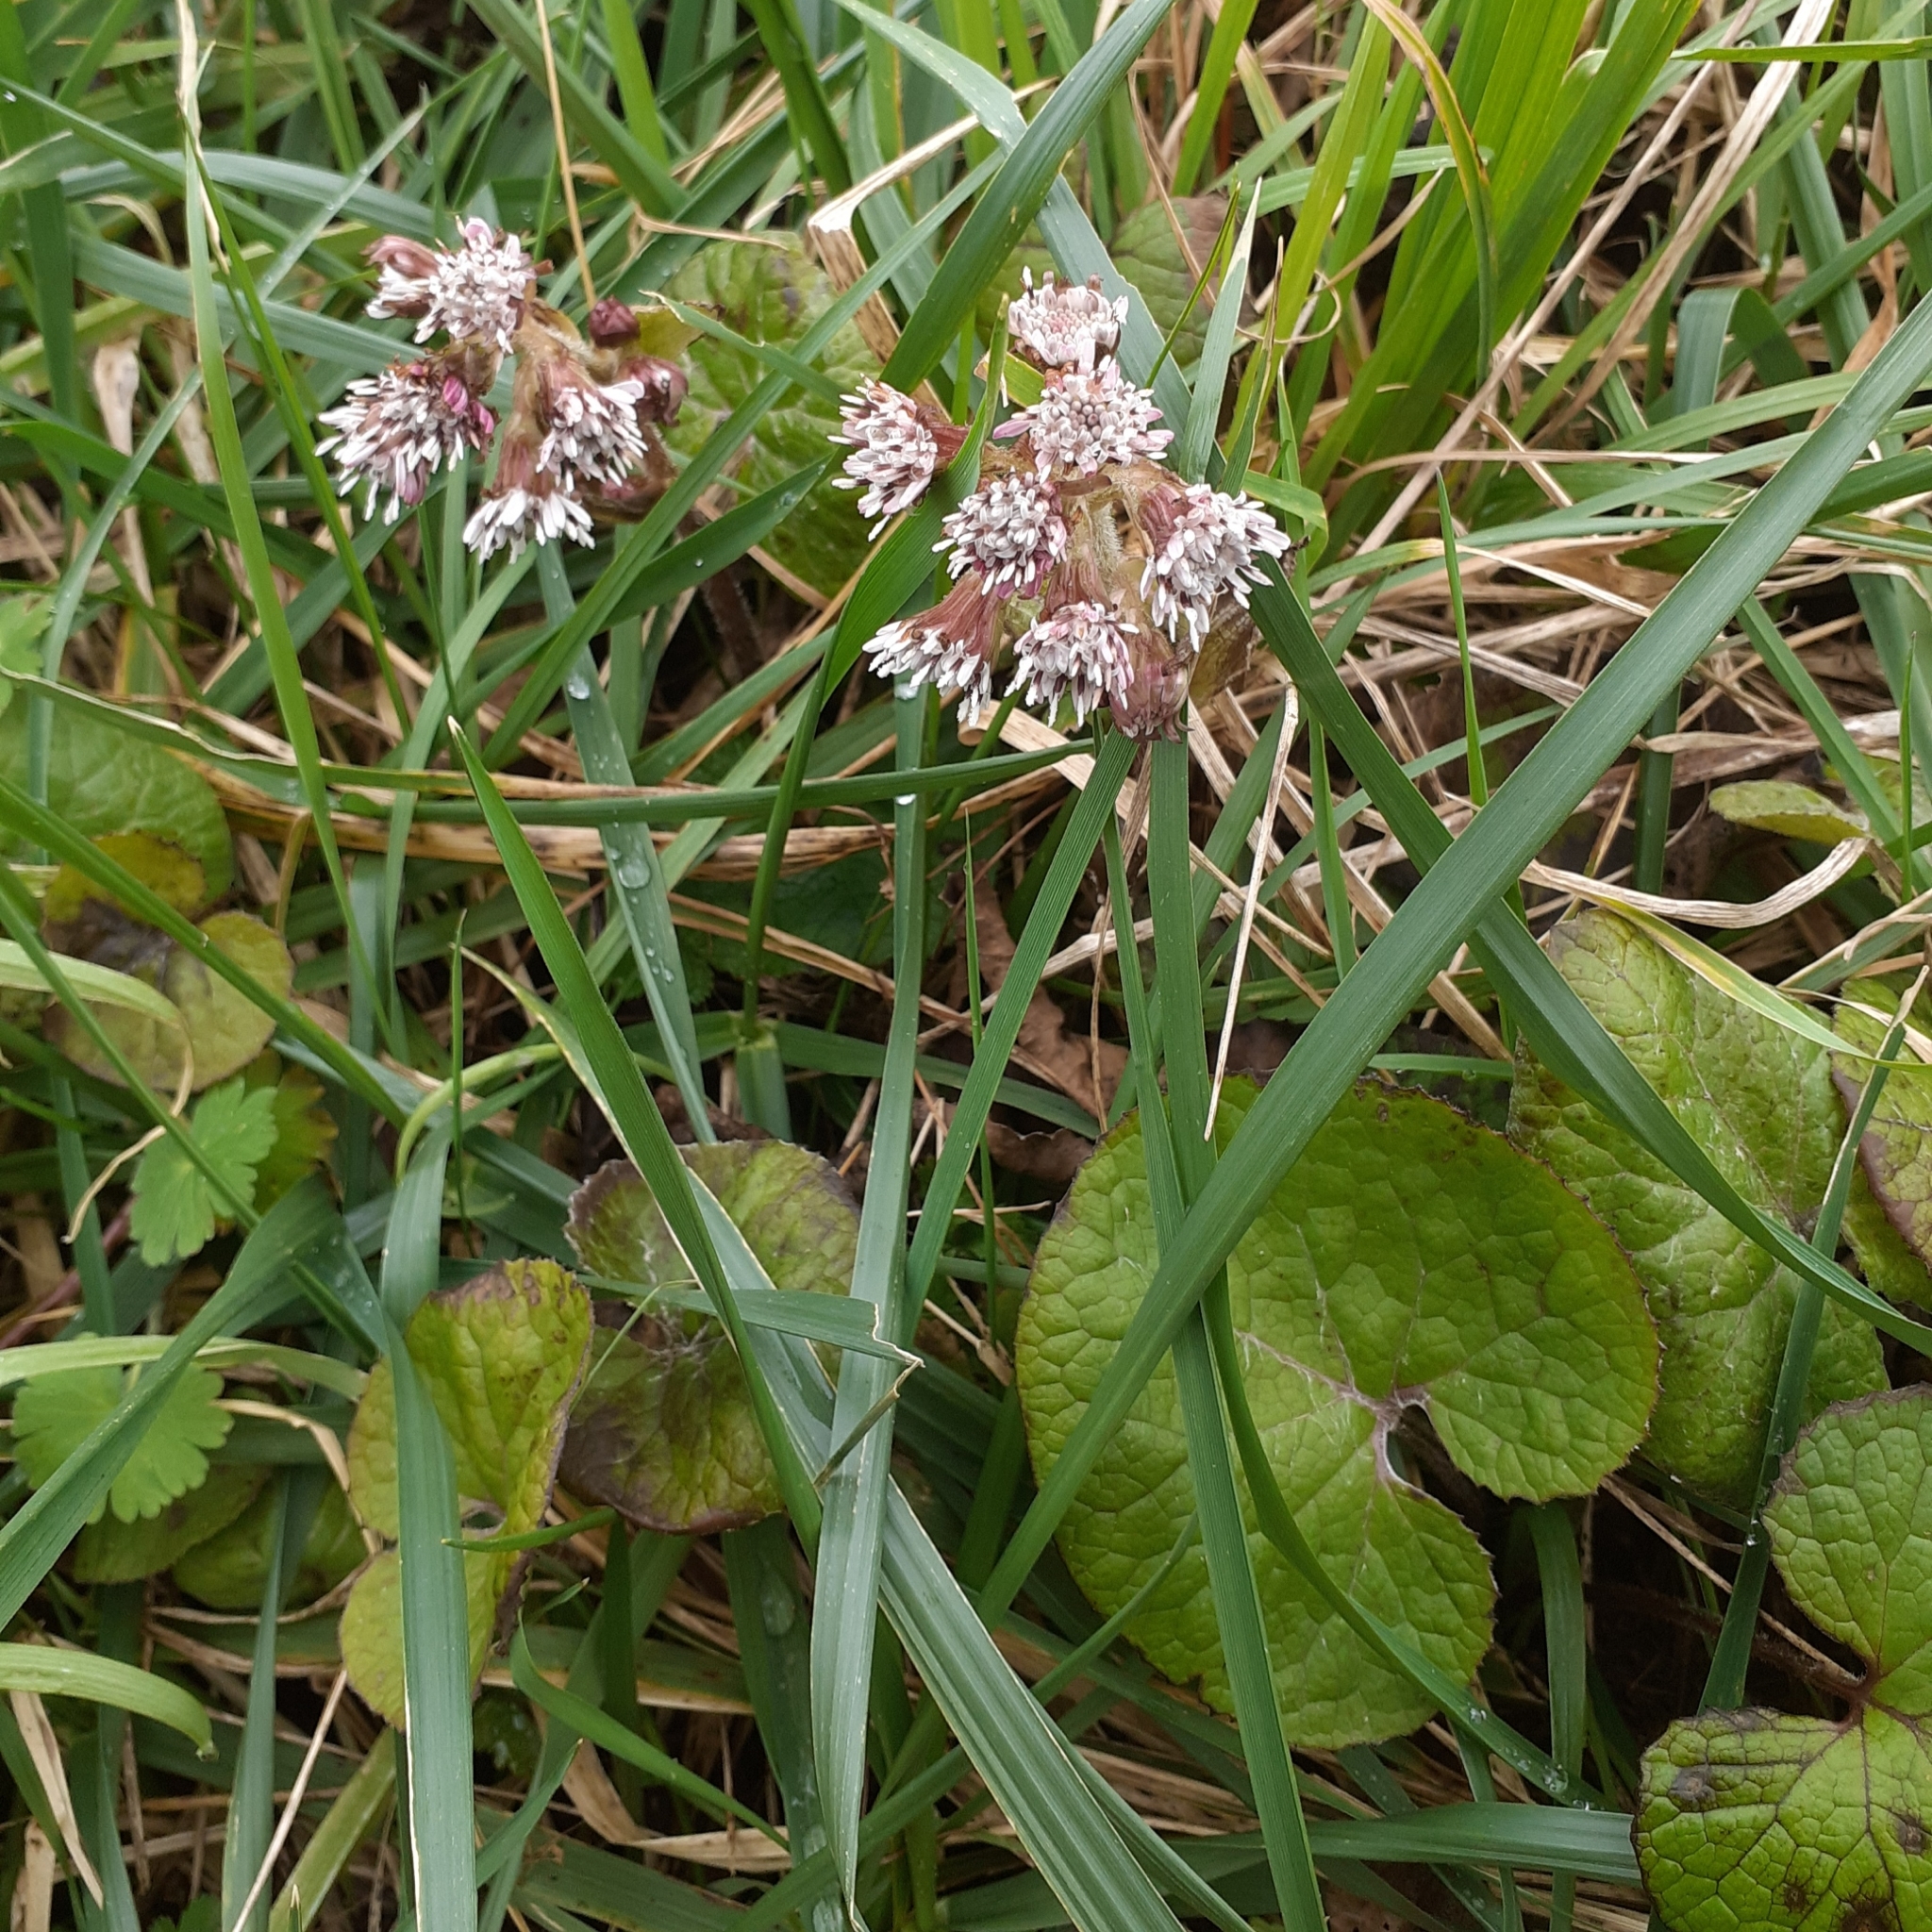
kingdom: Plantae
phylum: Tracheophyta
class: Magnoliopsida
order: Asterales
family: Asteraceae
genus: Petasites
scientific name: Petasites pyrenaicus
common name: Winter heliotrope
